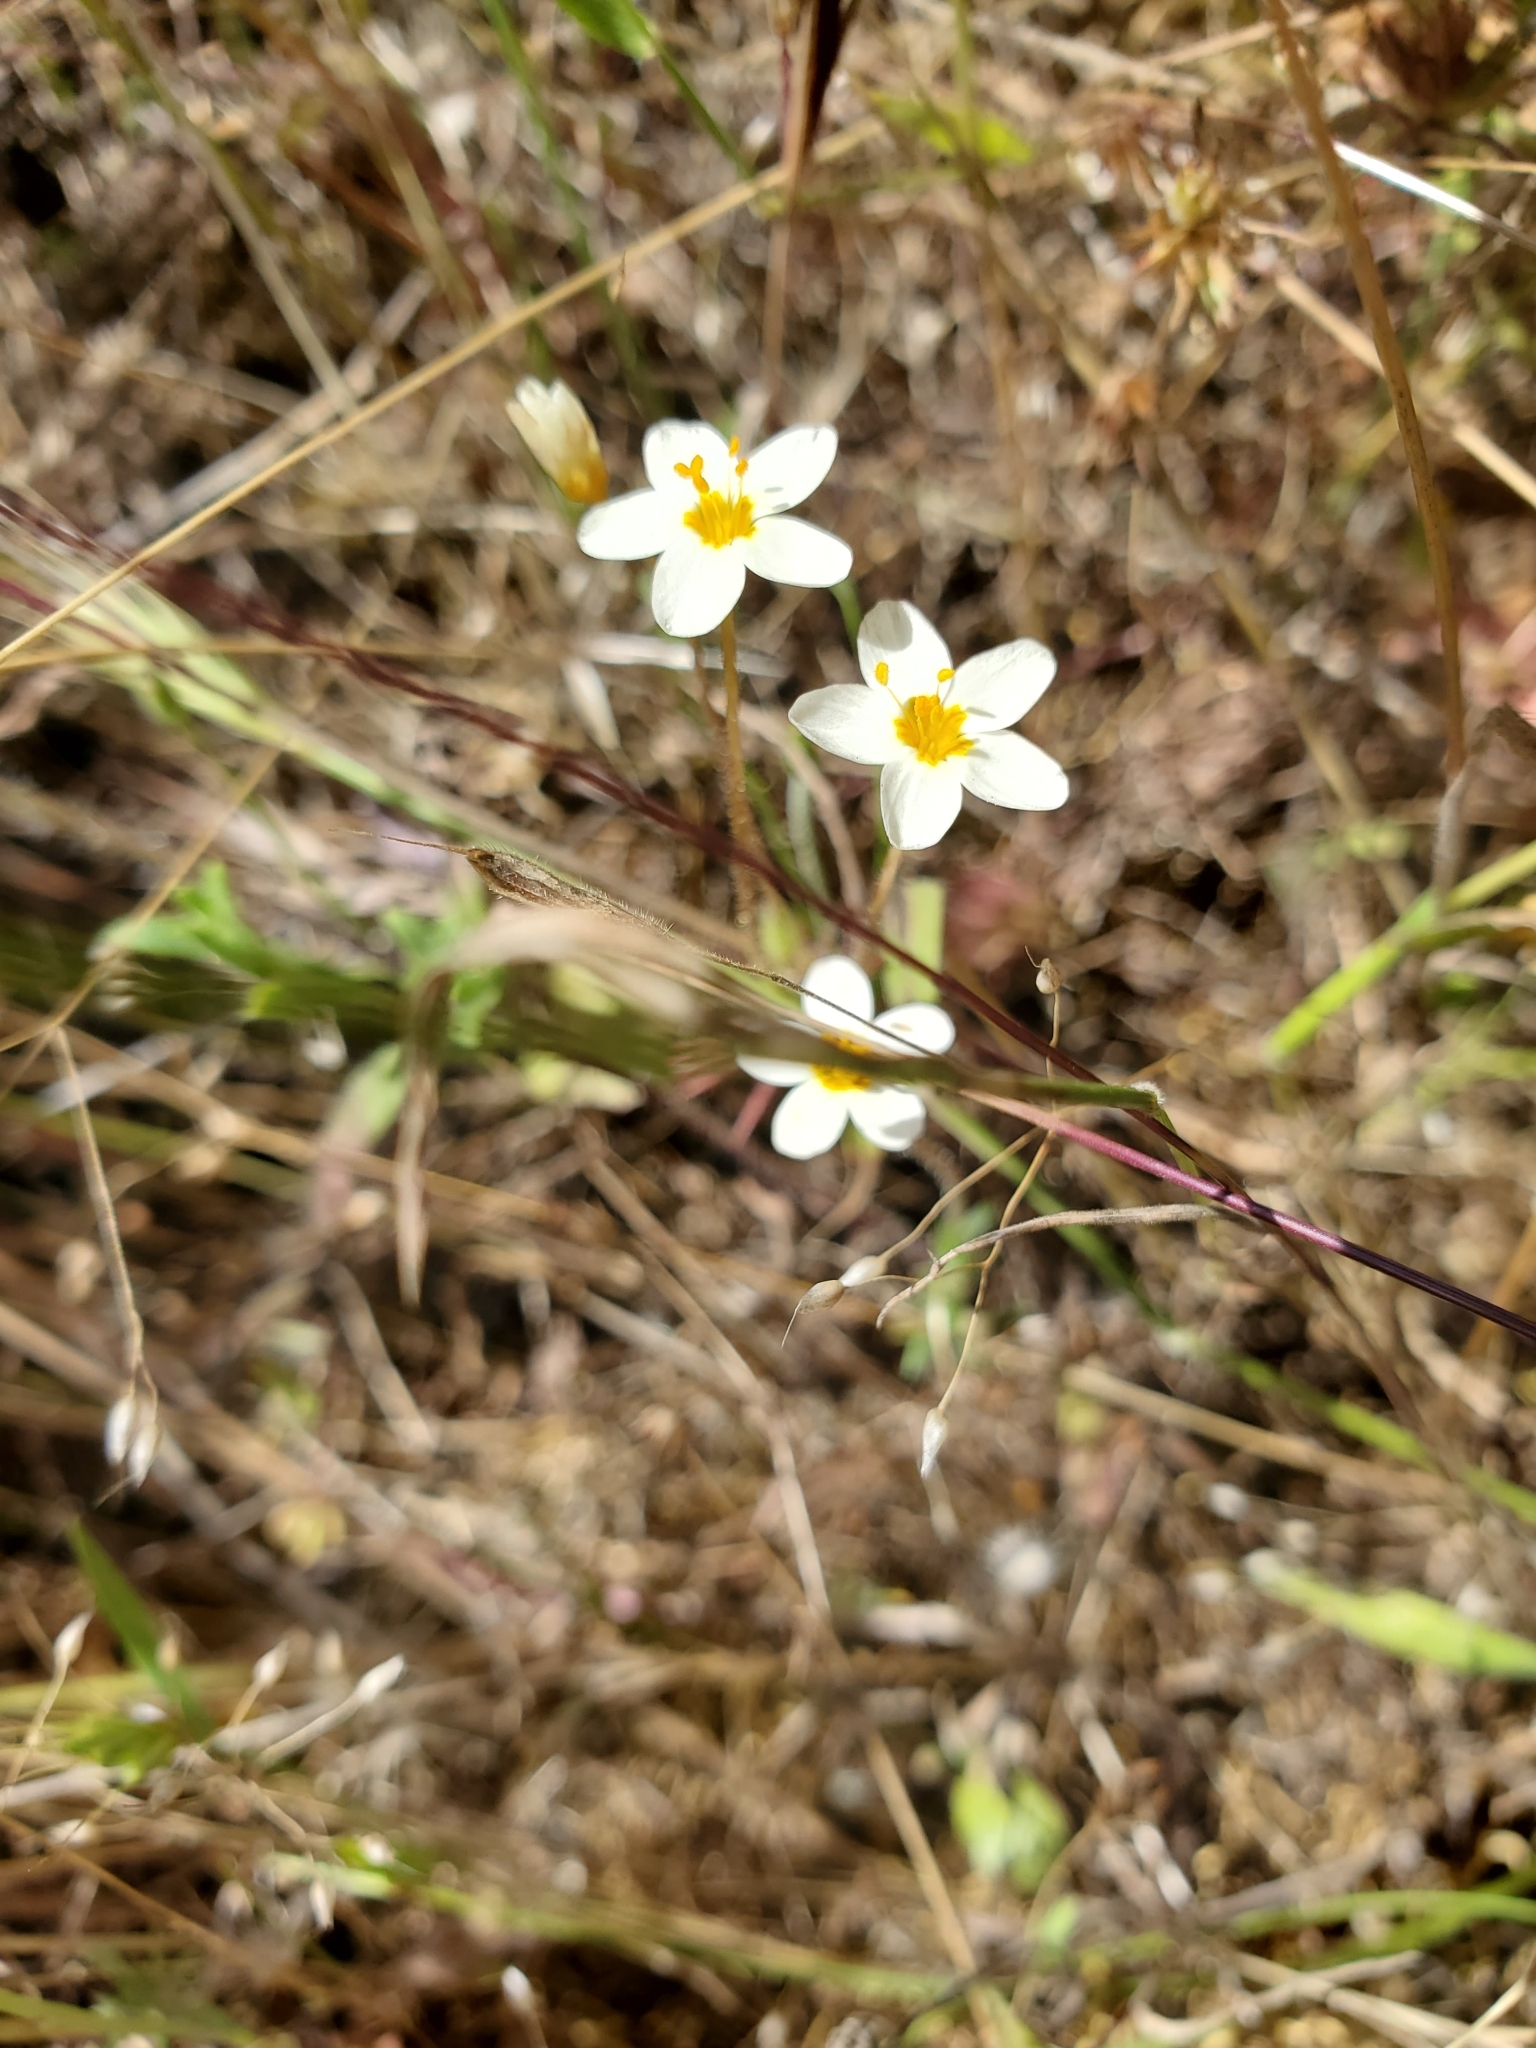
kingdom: Plantae
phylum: Tracheophyta
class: Magnoliopsida
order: Ericales
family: Polemoniaceae
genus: Leptosiphon
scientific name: Leptosiphon parviflorus
